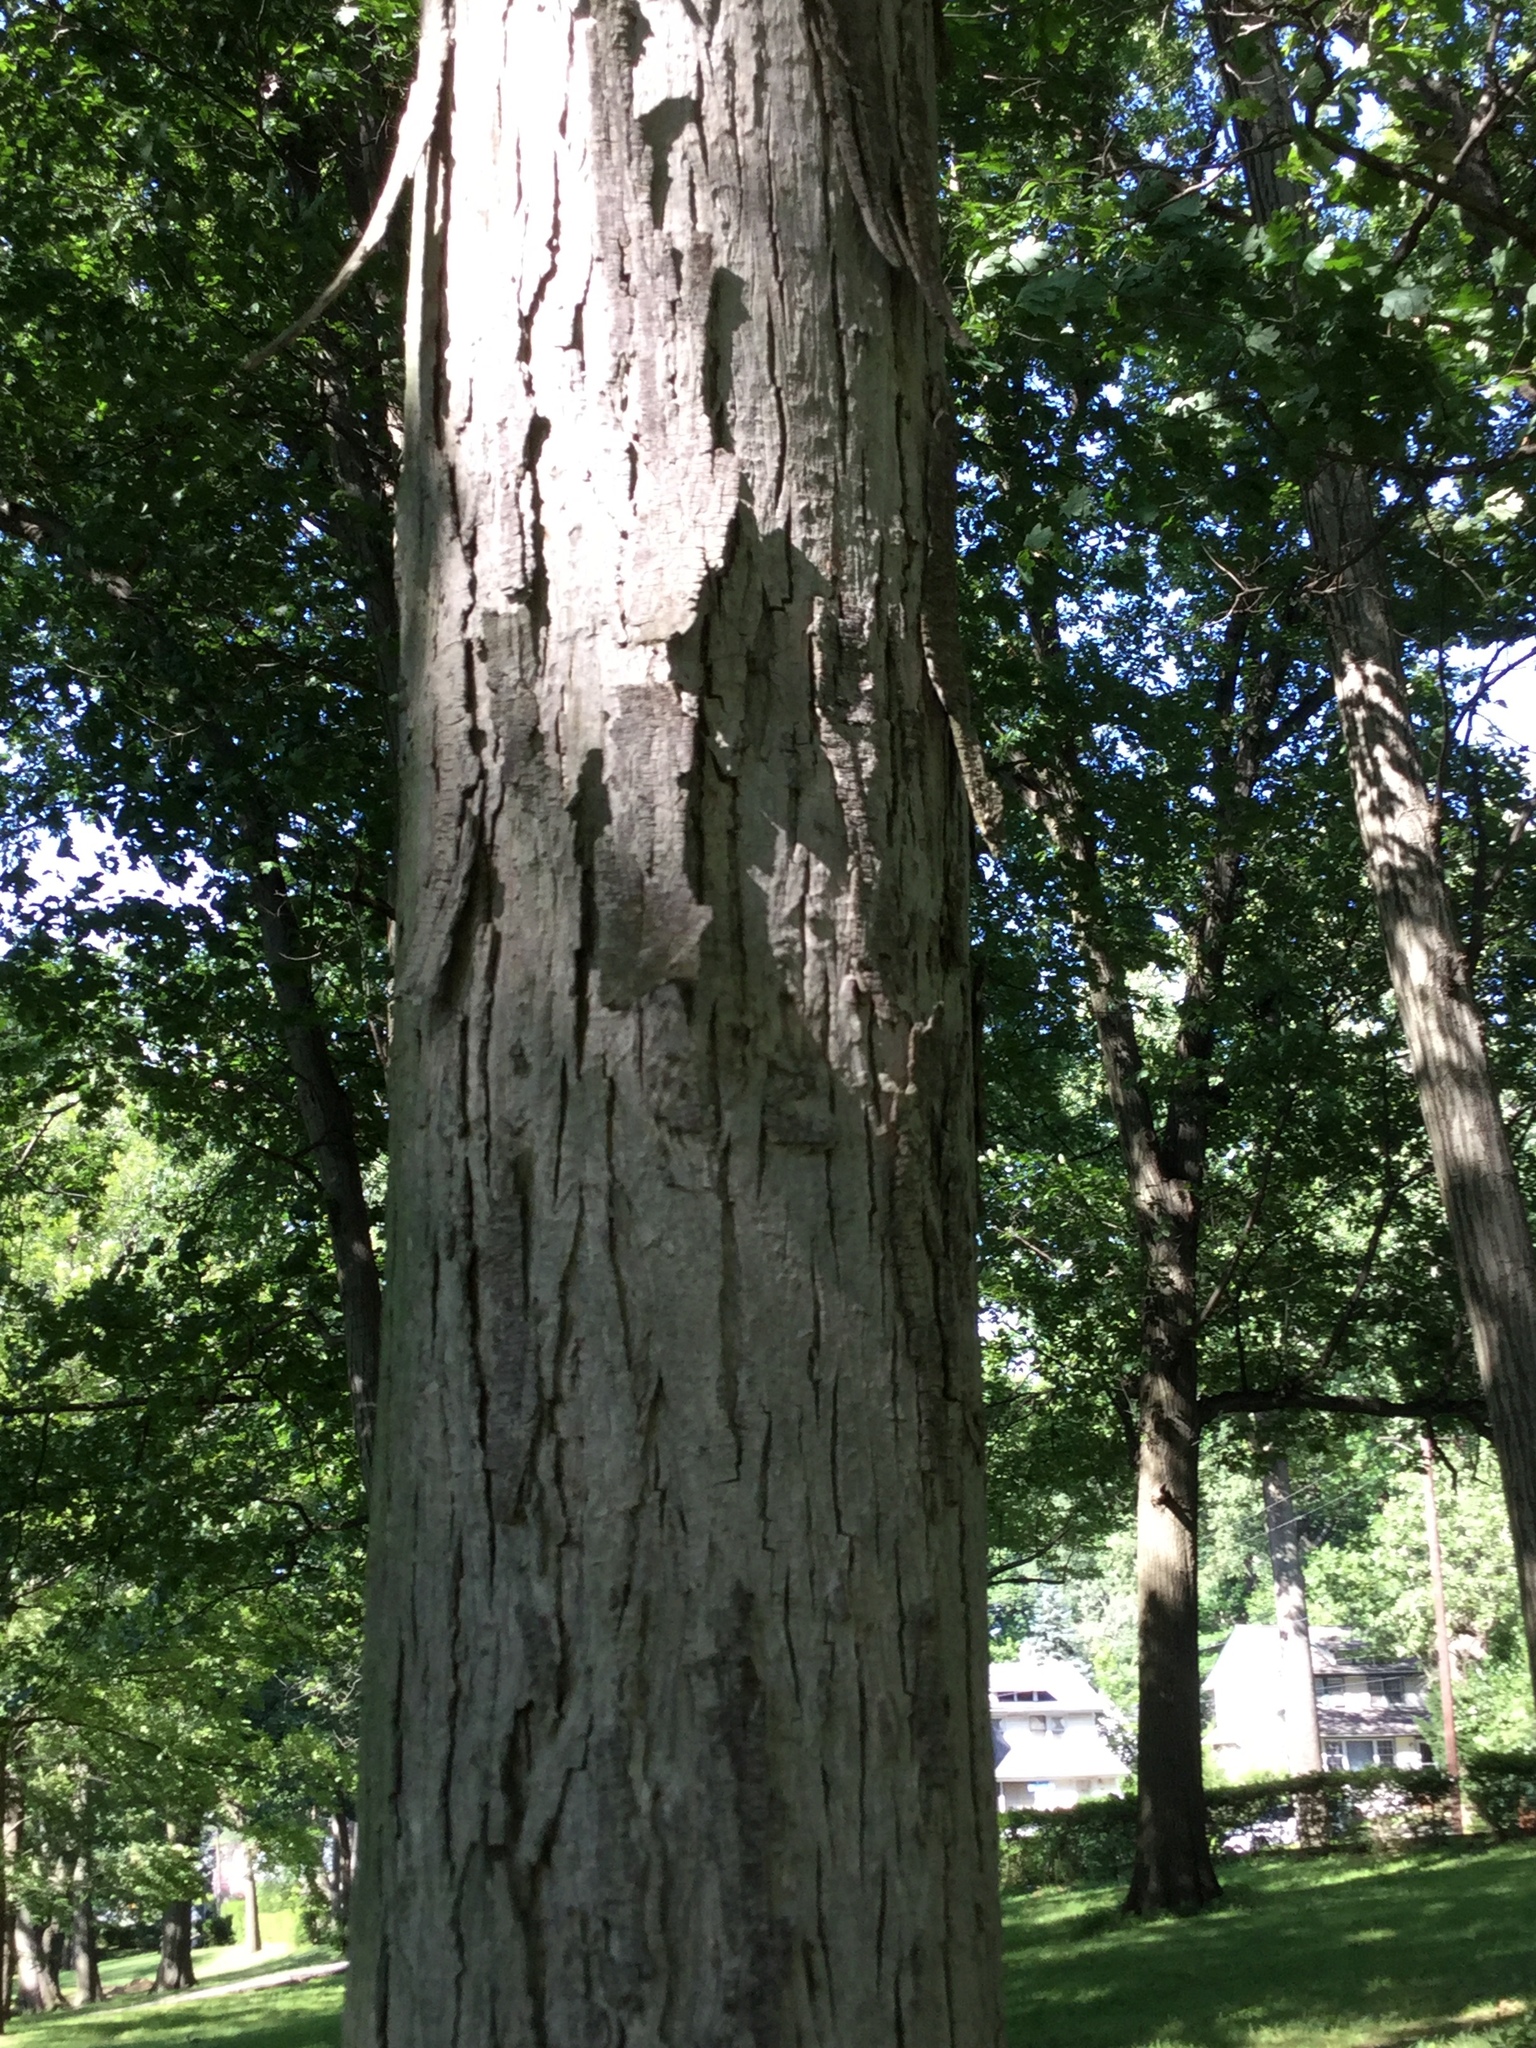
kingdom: Plantae
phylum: Tracheophyta
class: Magnoliopsida
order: Fagales
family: Juglandaceae
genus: Carya
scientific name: Carya ovata
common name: Shagbark hickory
